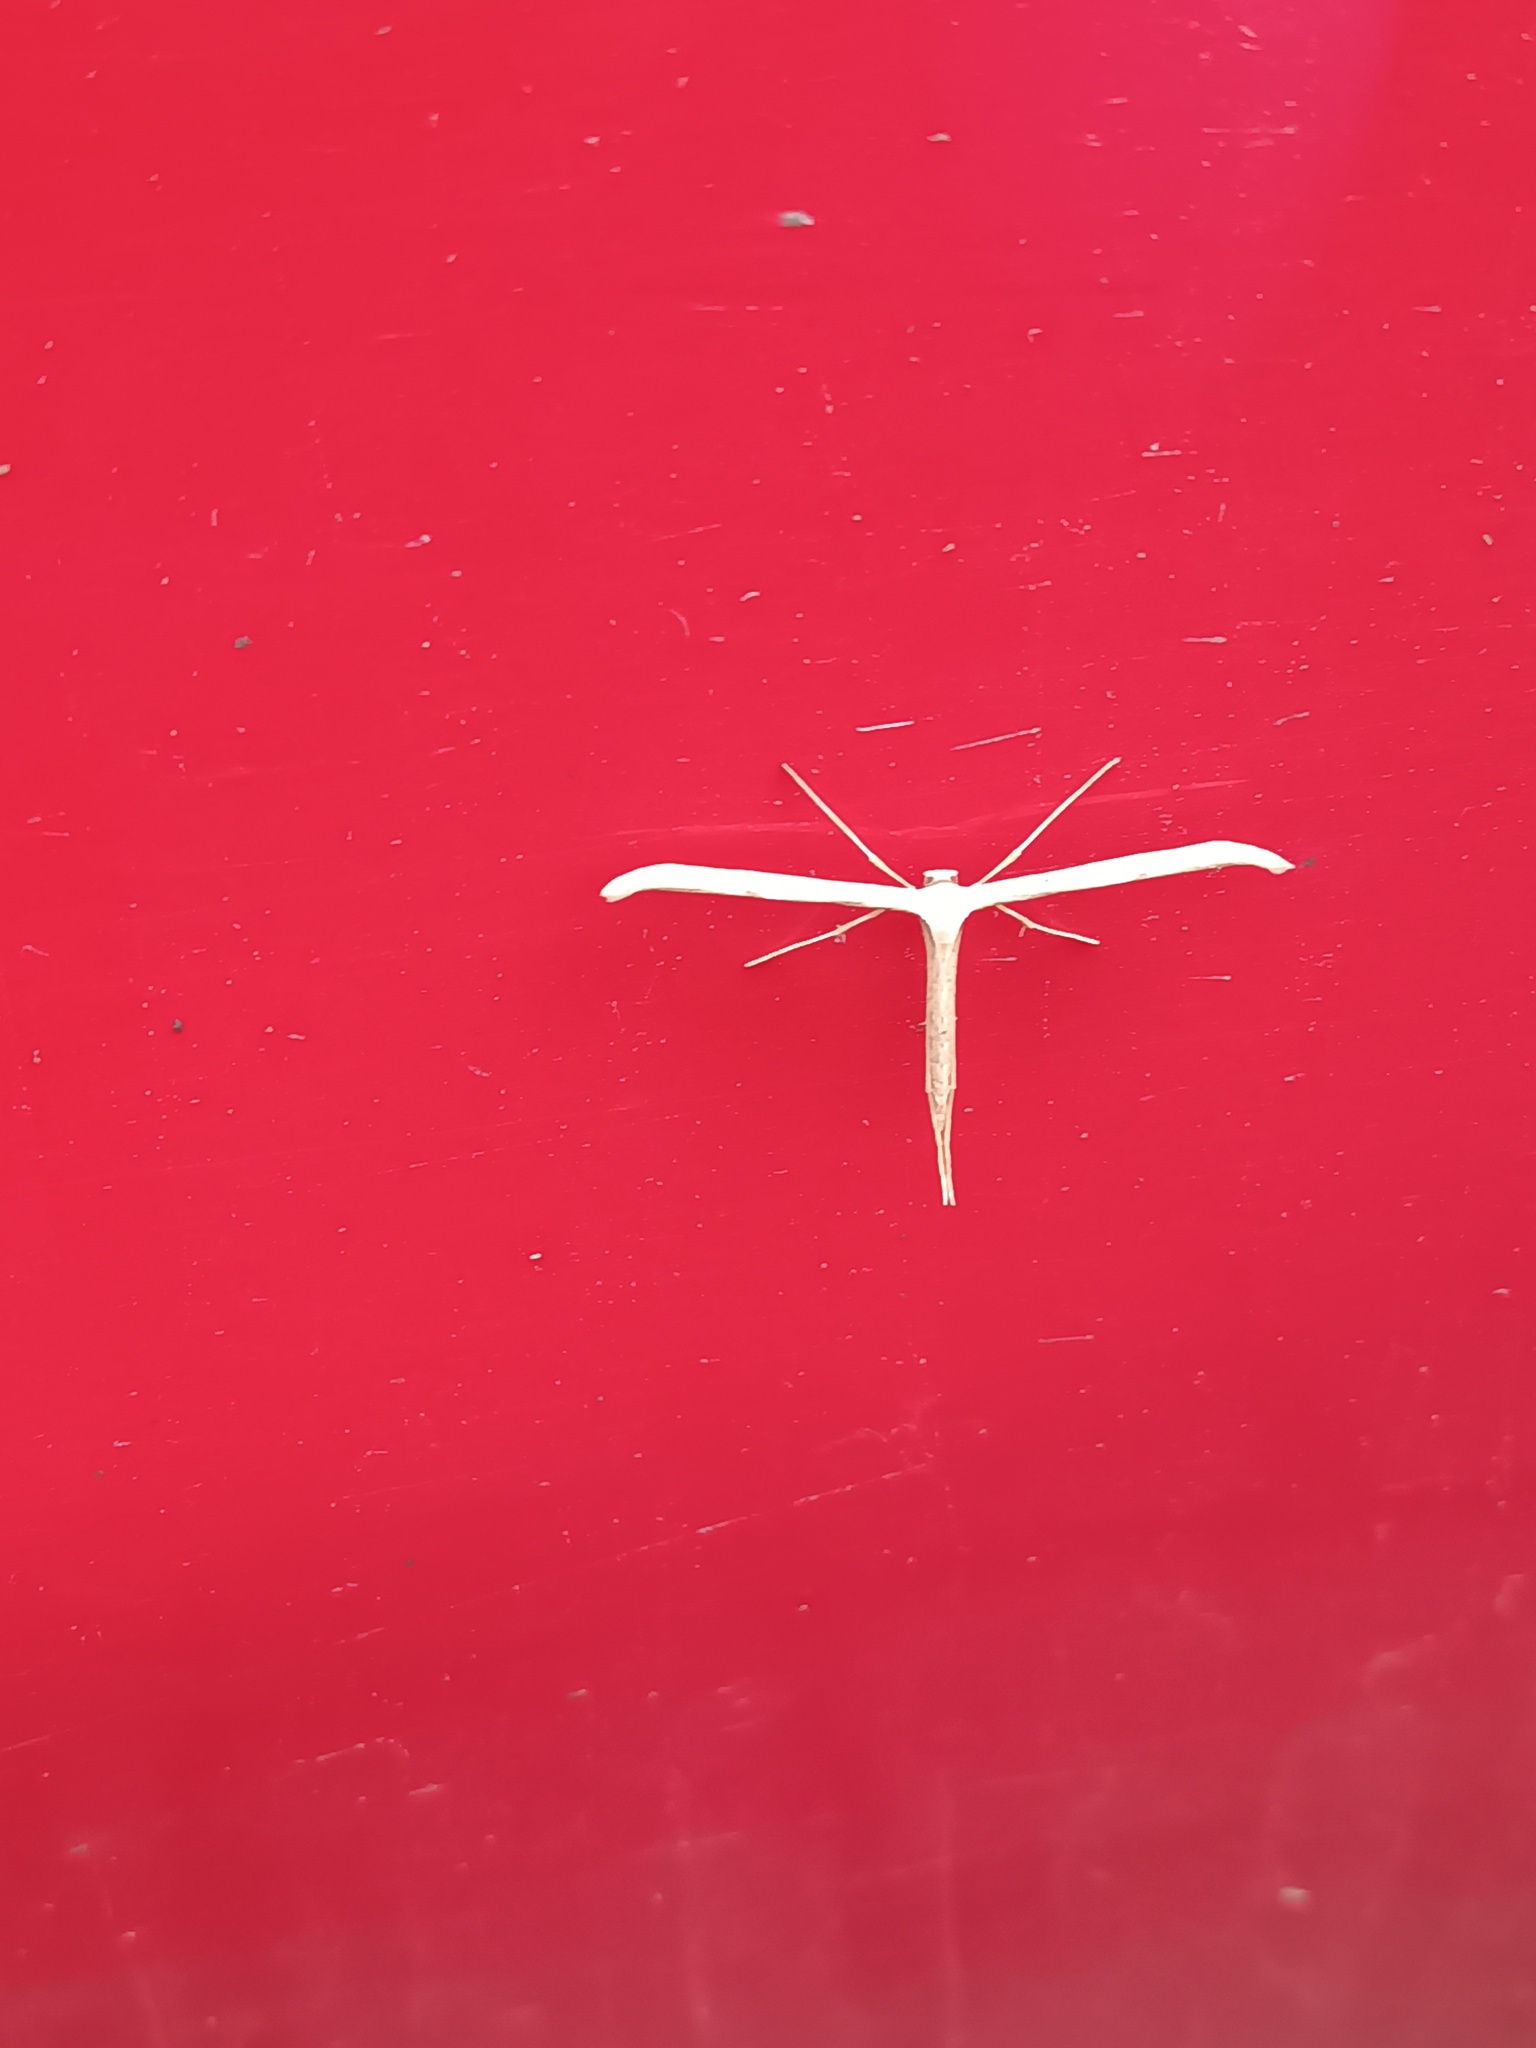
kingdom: Animalia
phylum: Arthropoda
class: Insecta
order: Lepidoptera
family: Pterophoridae
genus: Emmelina
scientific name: Emmelina monodactyla
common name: Common plume
